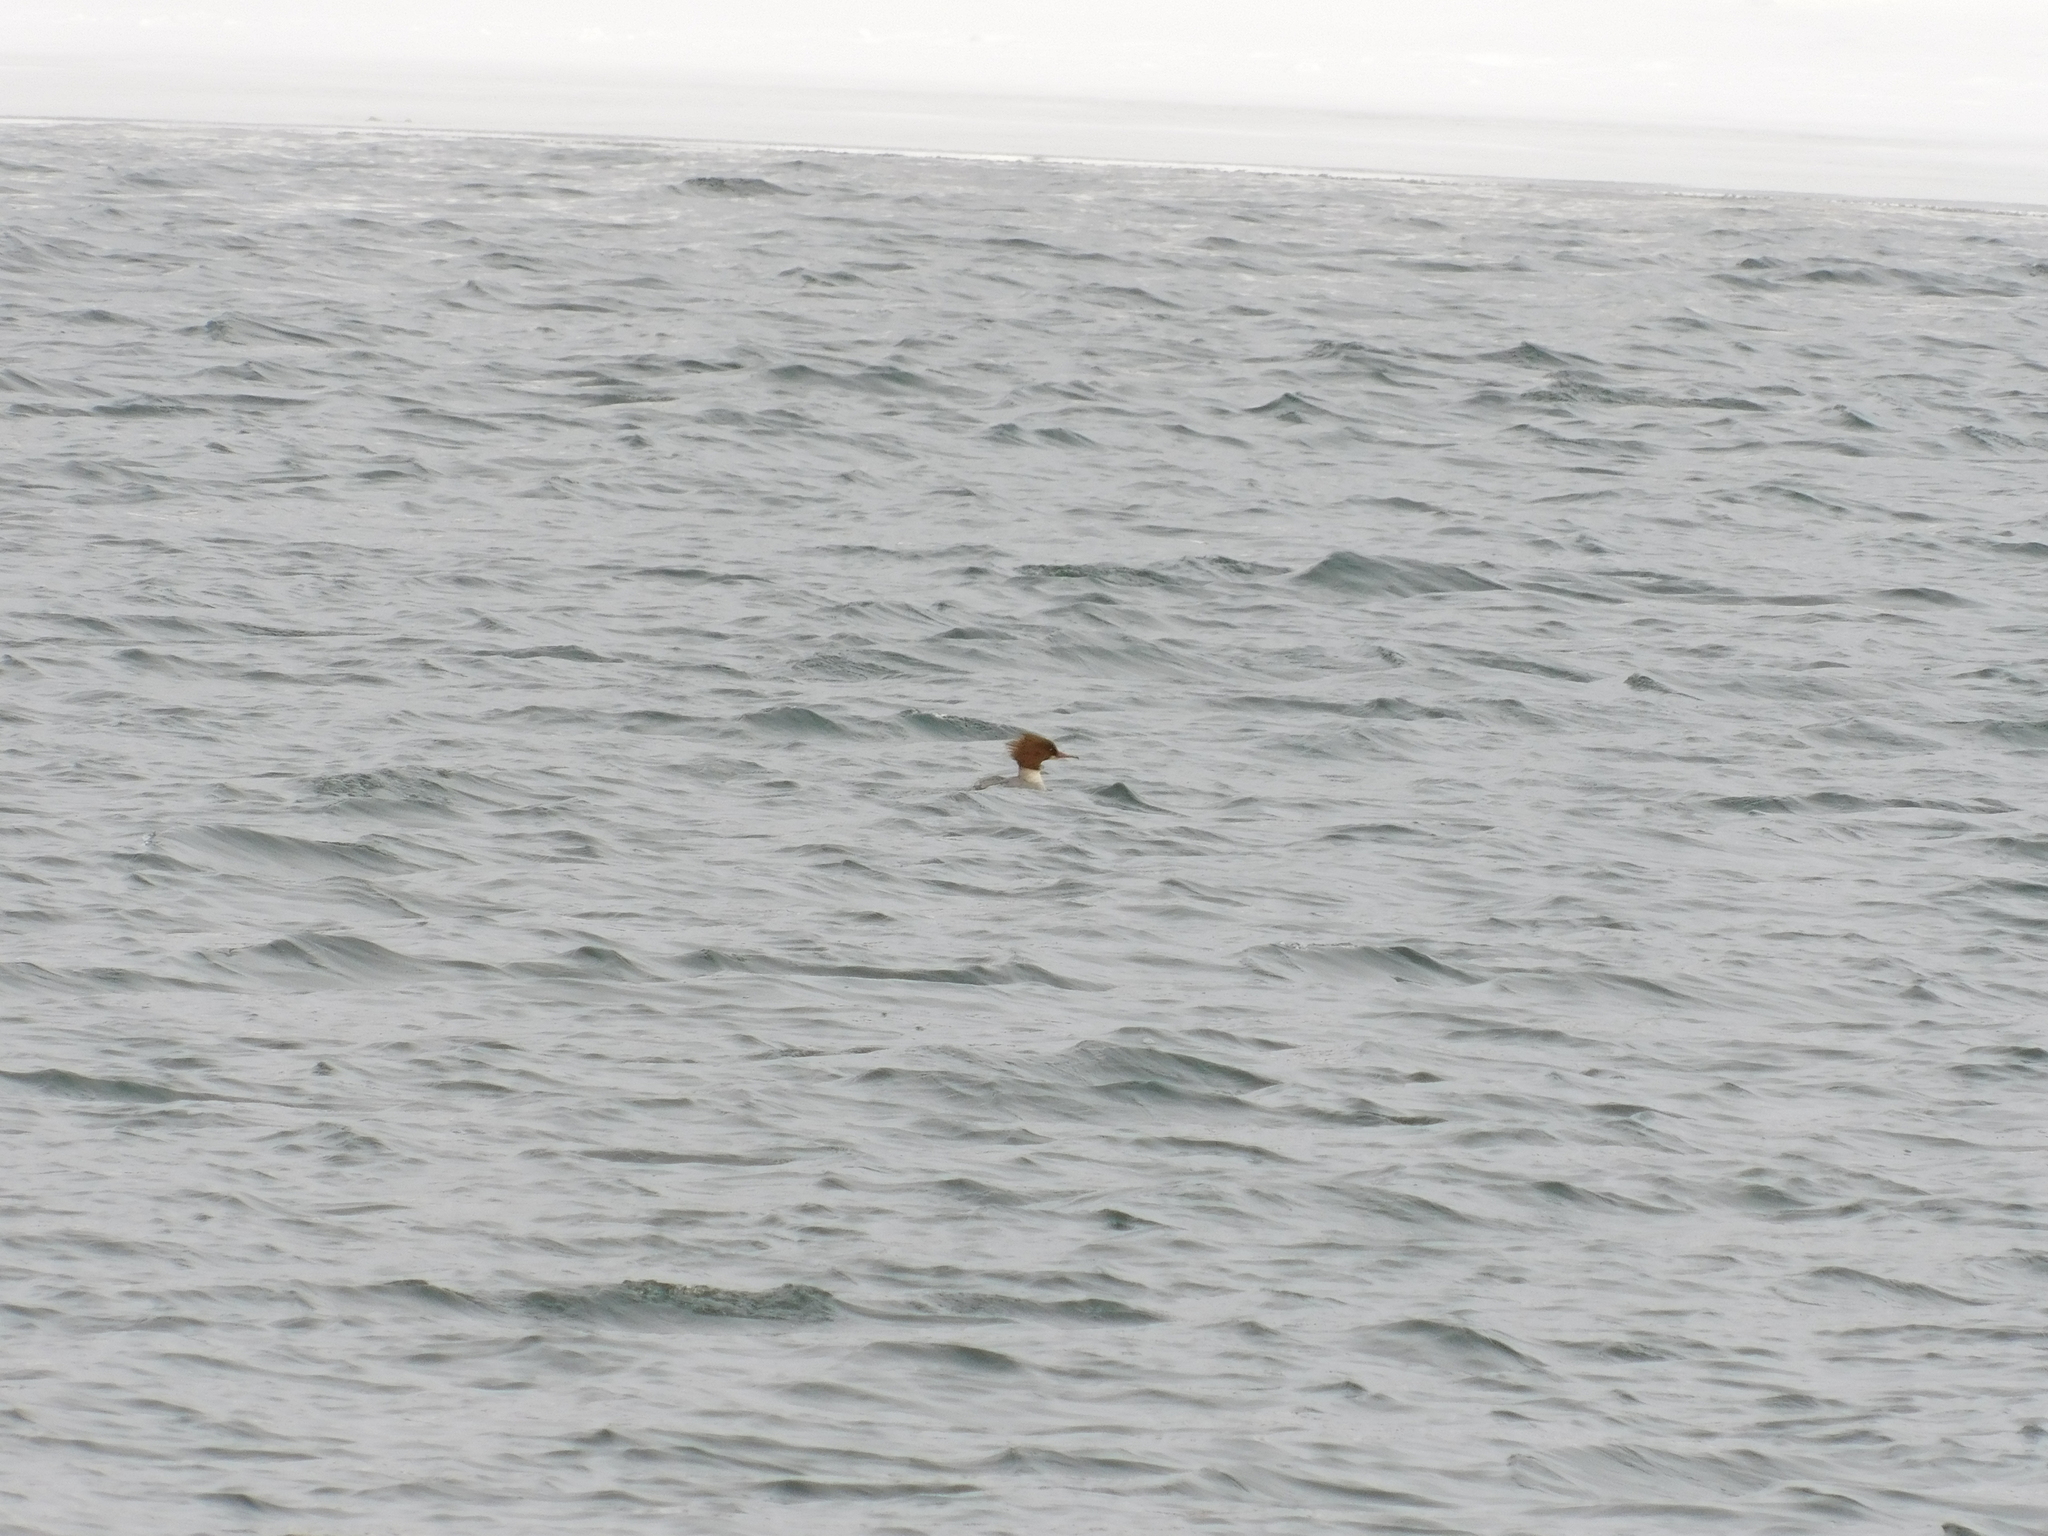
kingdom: Animalia
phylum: Chordata
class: Aves
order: Anseriformes
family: Anatidae
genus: Mergus
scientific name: Mergus merganser
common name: Common merganser
